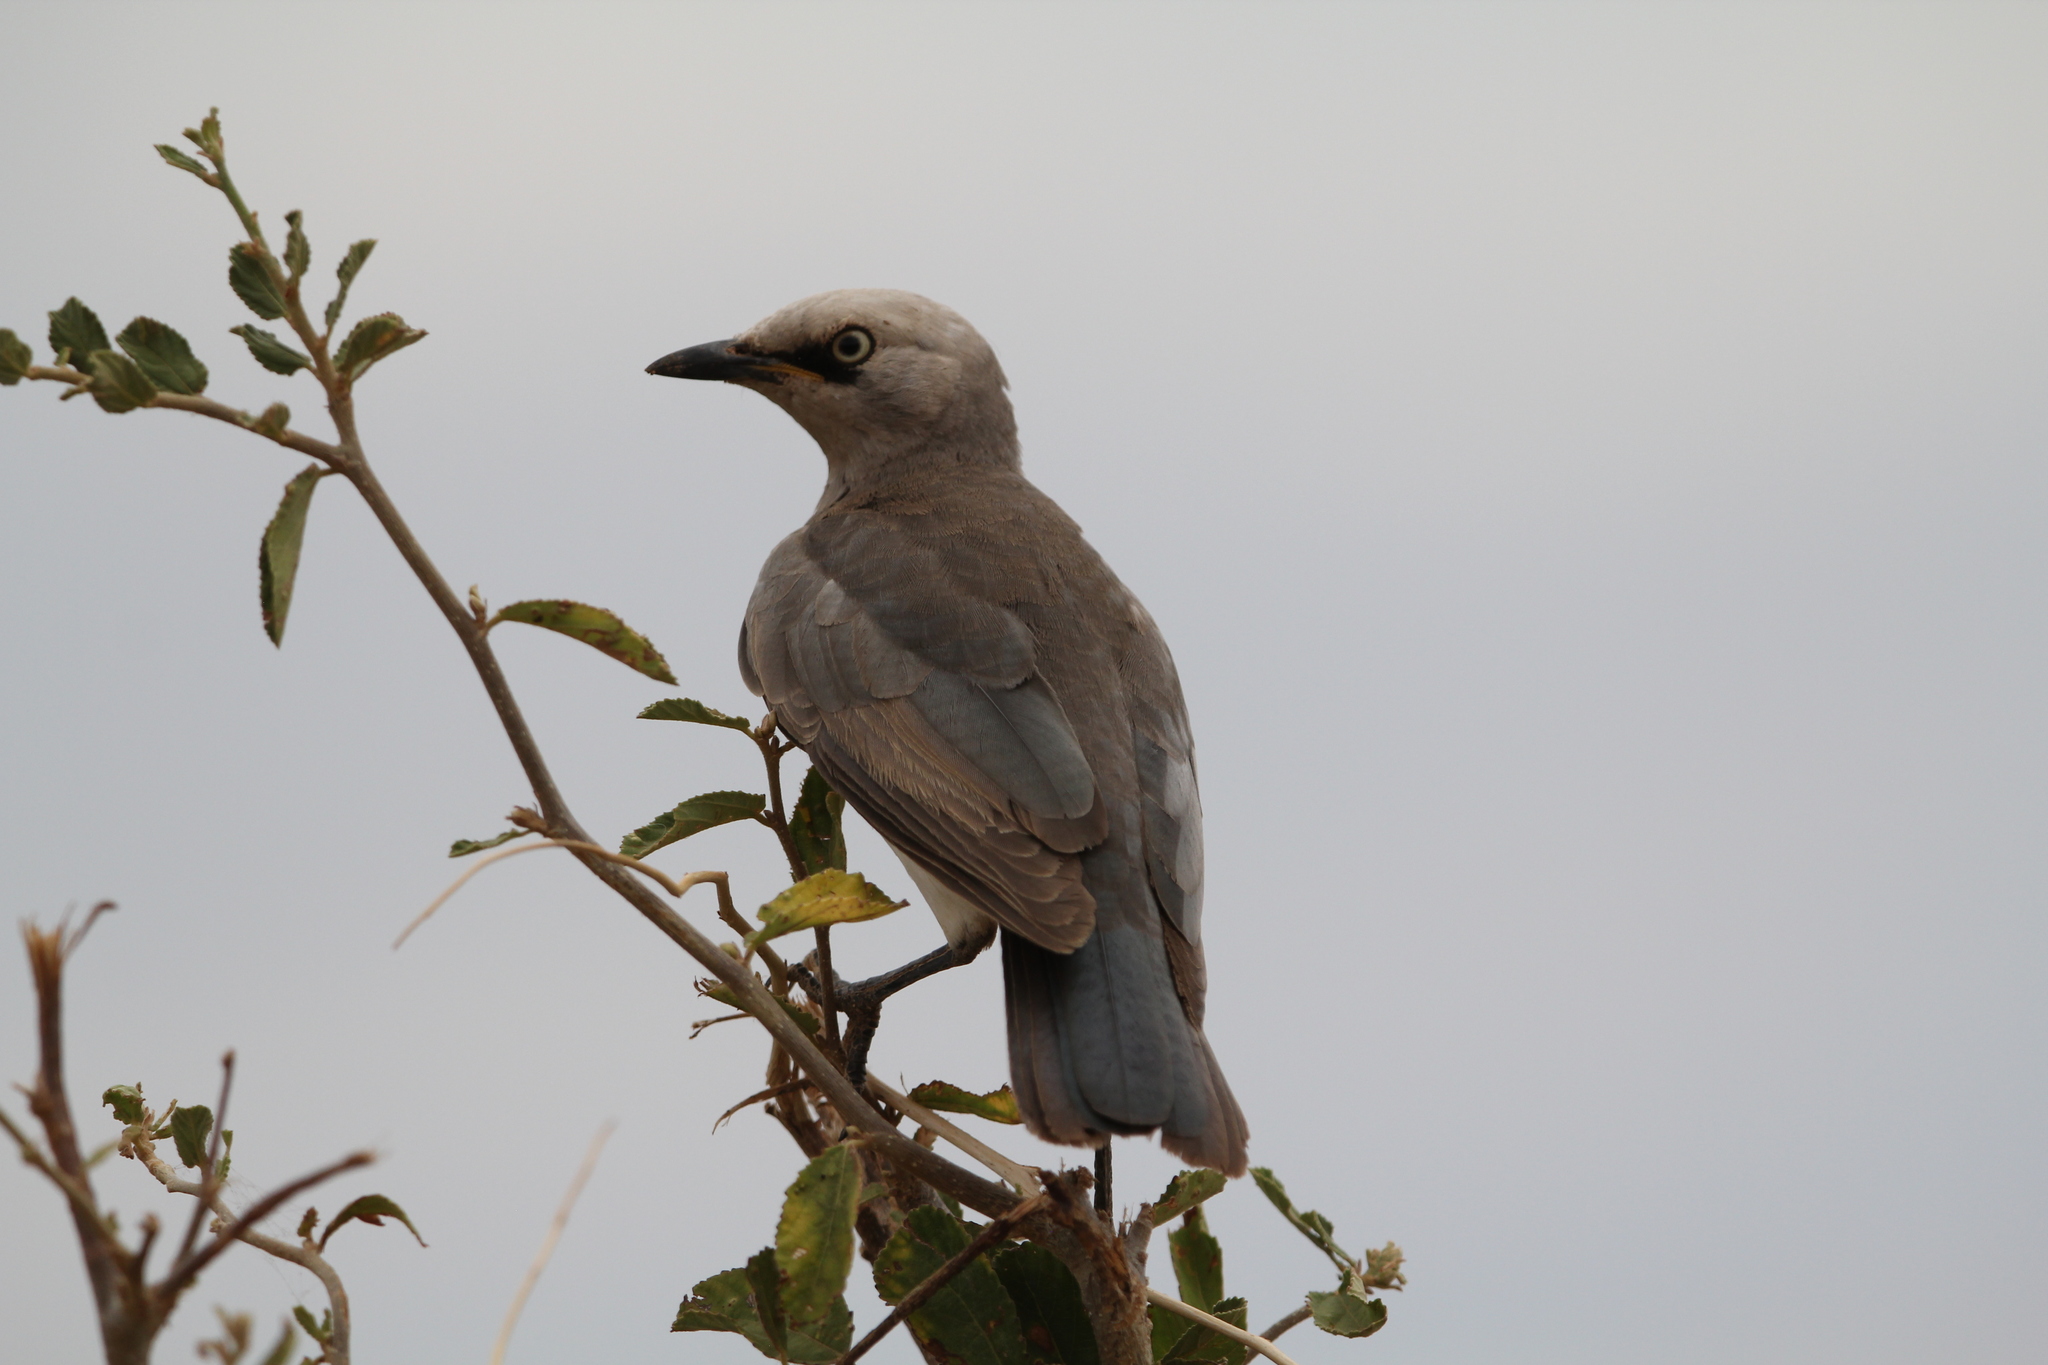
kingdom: Animalia
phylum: Chordata
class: Aves
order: Passeriformes
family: Sturnidae
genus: Lamprotornis
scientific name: Lamprotornis fischeri
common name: Fischer's starling
